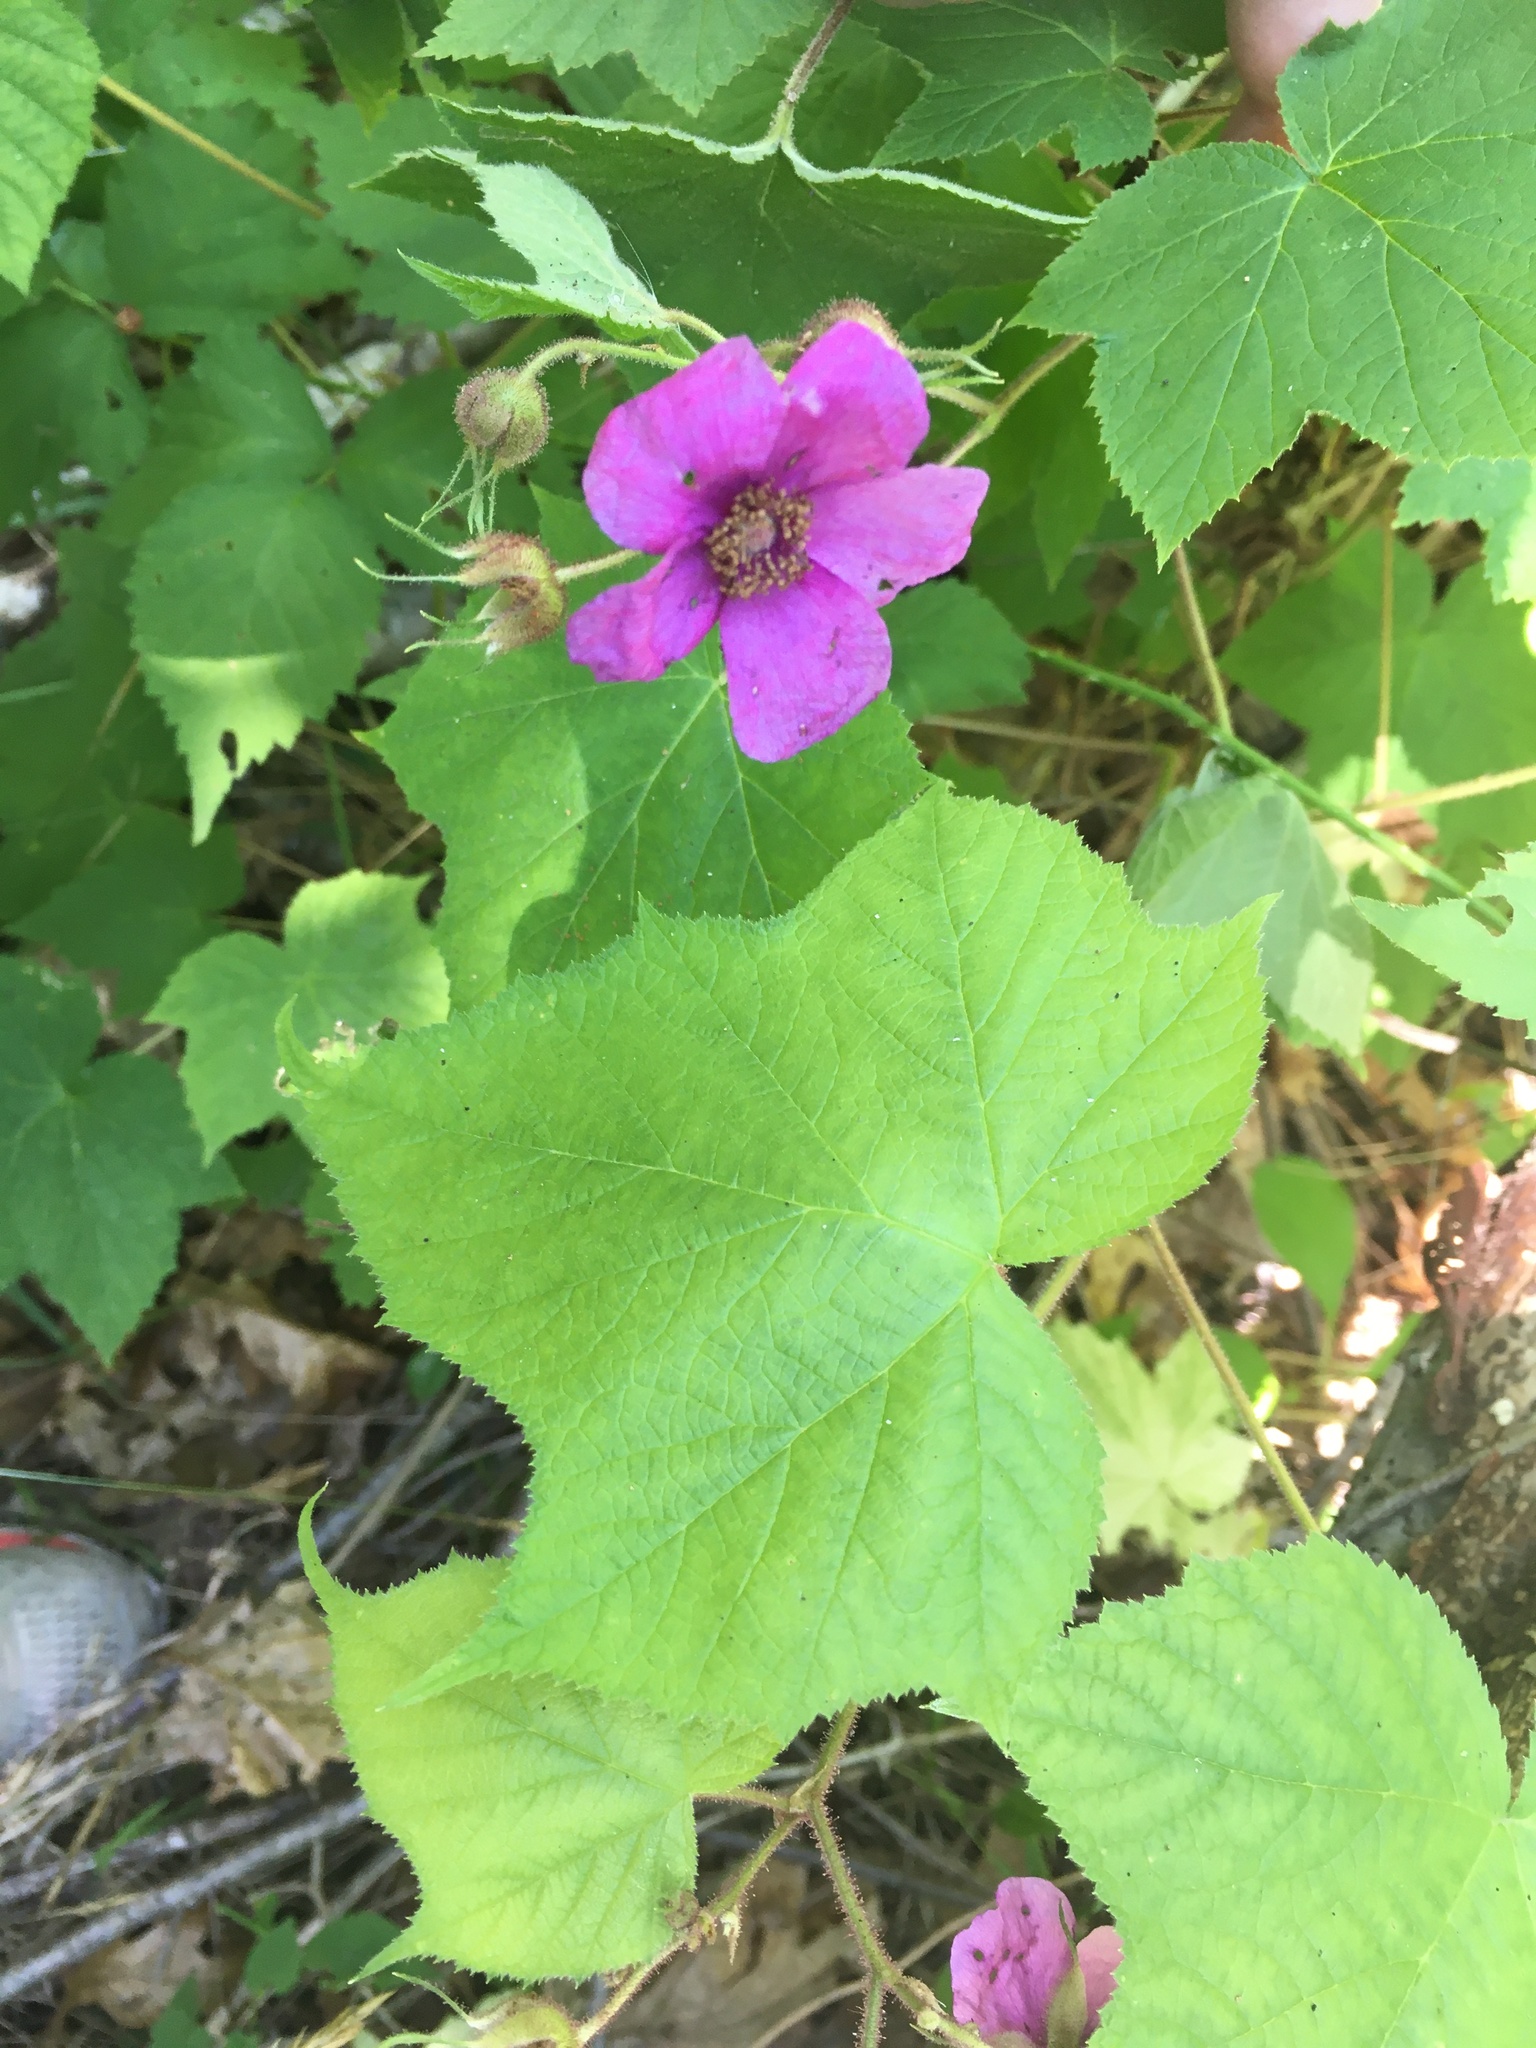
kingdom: Plantae
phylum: Tracheophyta
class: Magnoliopsida
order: Rosales
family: Rosaceae
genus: Rubus
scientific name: Rubus odoratus
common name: Purple-flowered raspberry
